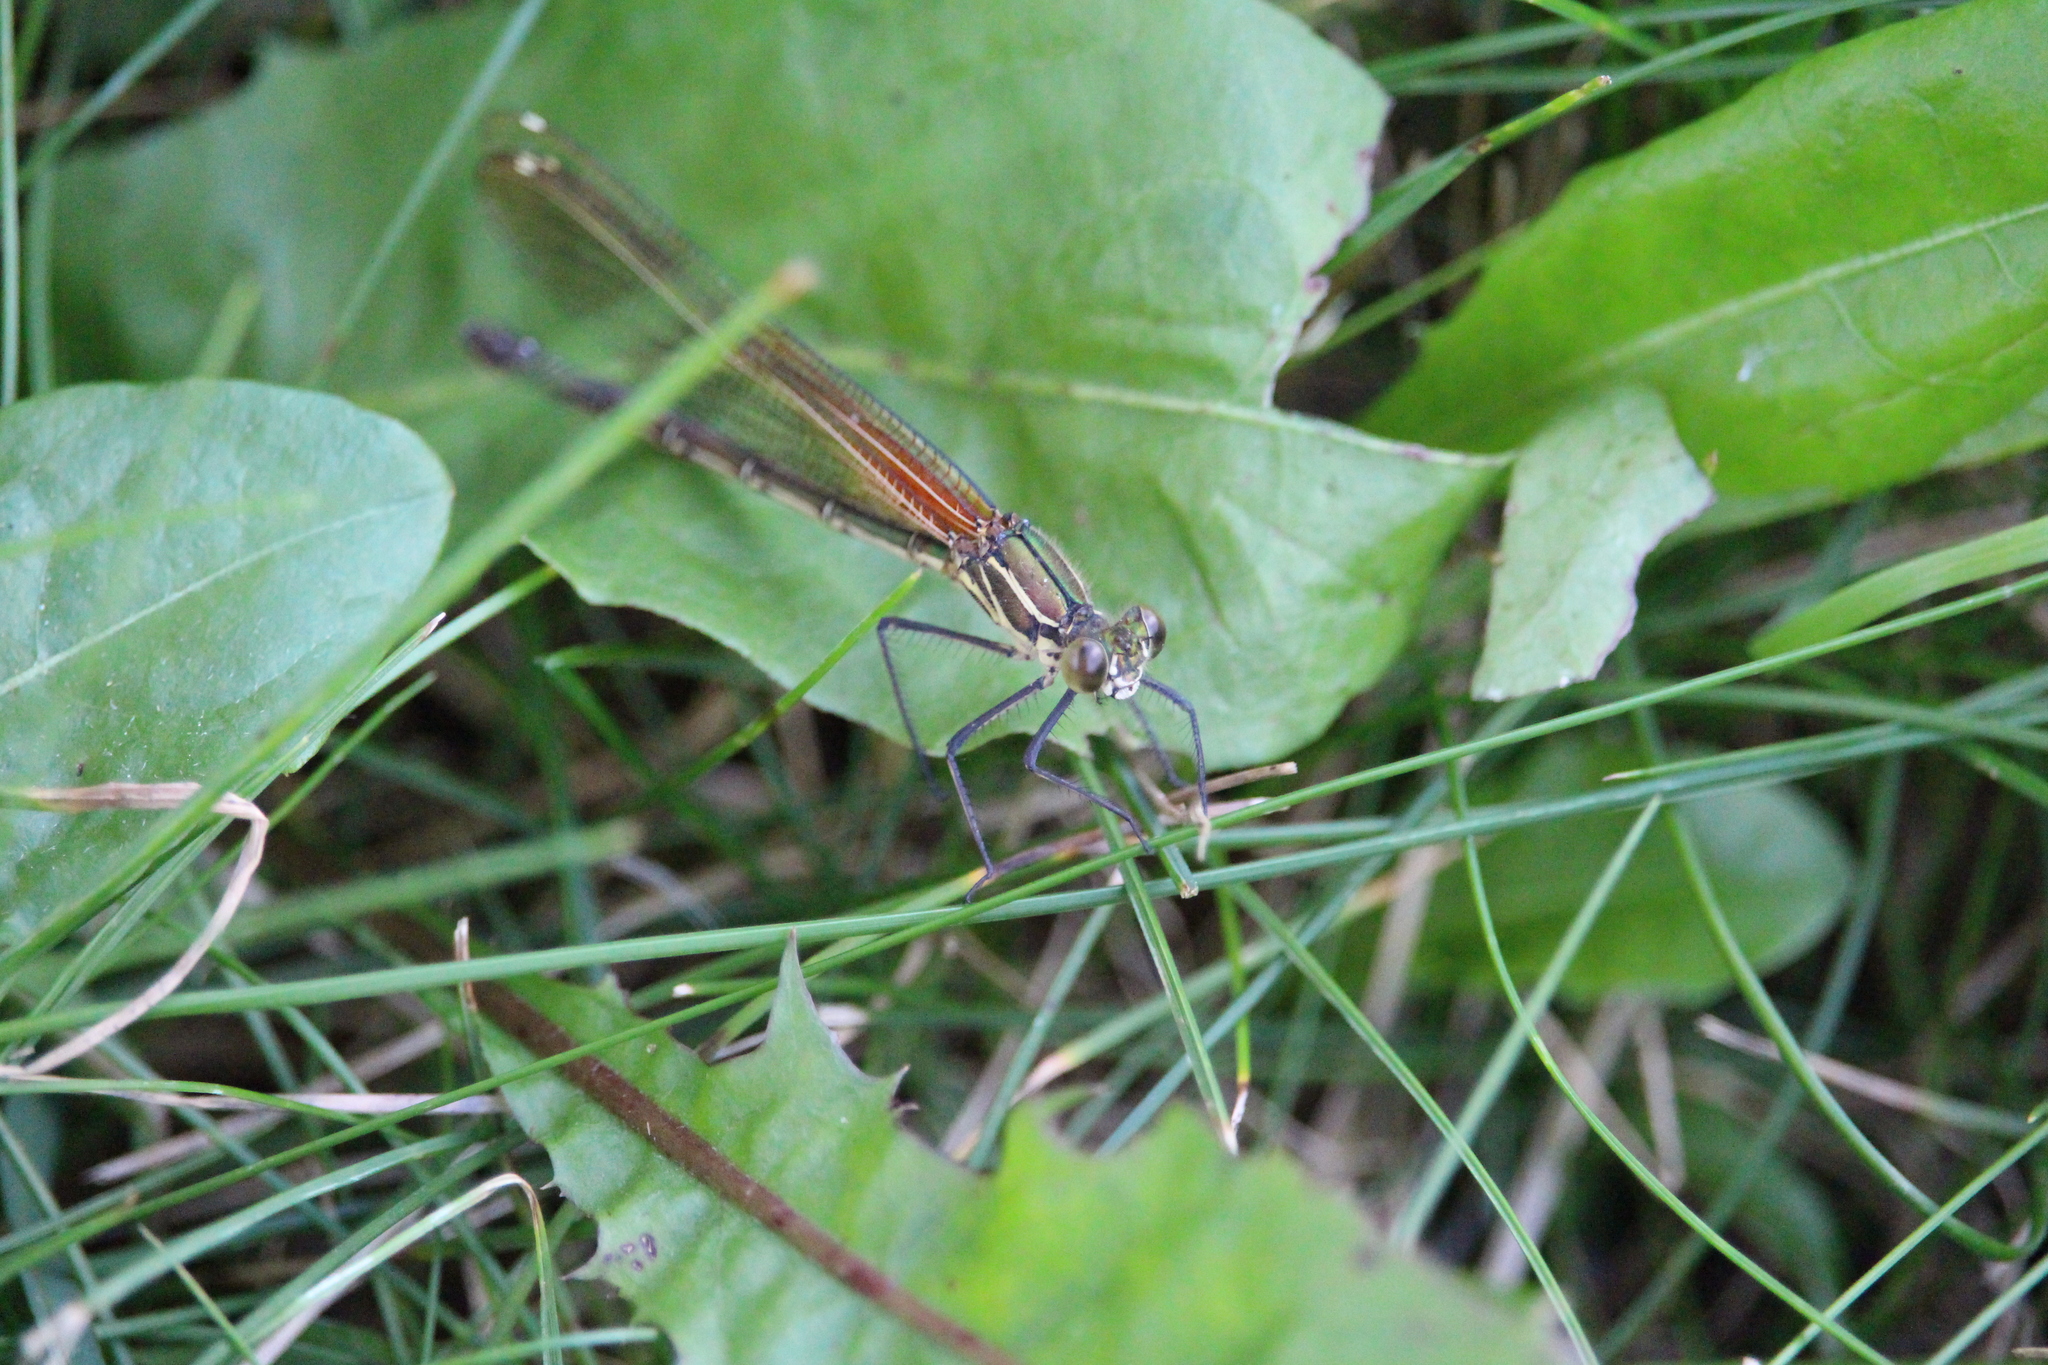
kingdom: Animalia
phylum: Arthropoda
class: Insecta
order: Odonata
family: Calopterygidae
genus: Hetaerina
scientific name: Hetaerina americana
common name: American rubyspot
